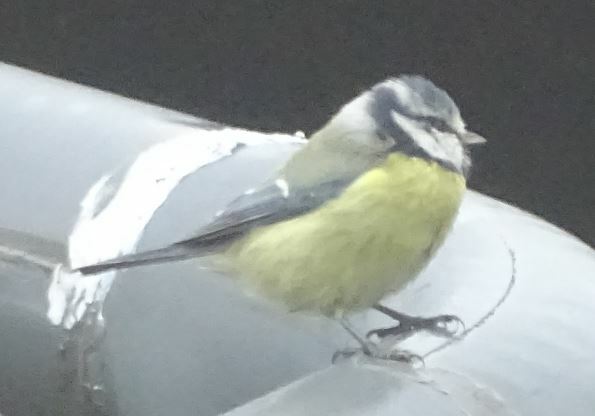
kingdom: Animalia
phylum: Chordata
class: Aves
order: Passeriformes
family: Paridae
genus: Cyanistes
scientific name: Cyanistes caeruleus
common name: Eurasian blue tit
